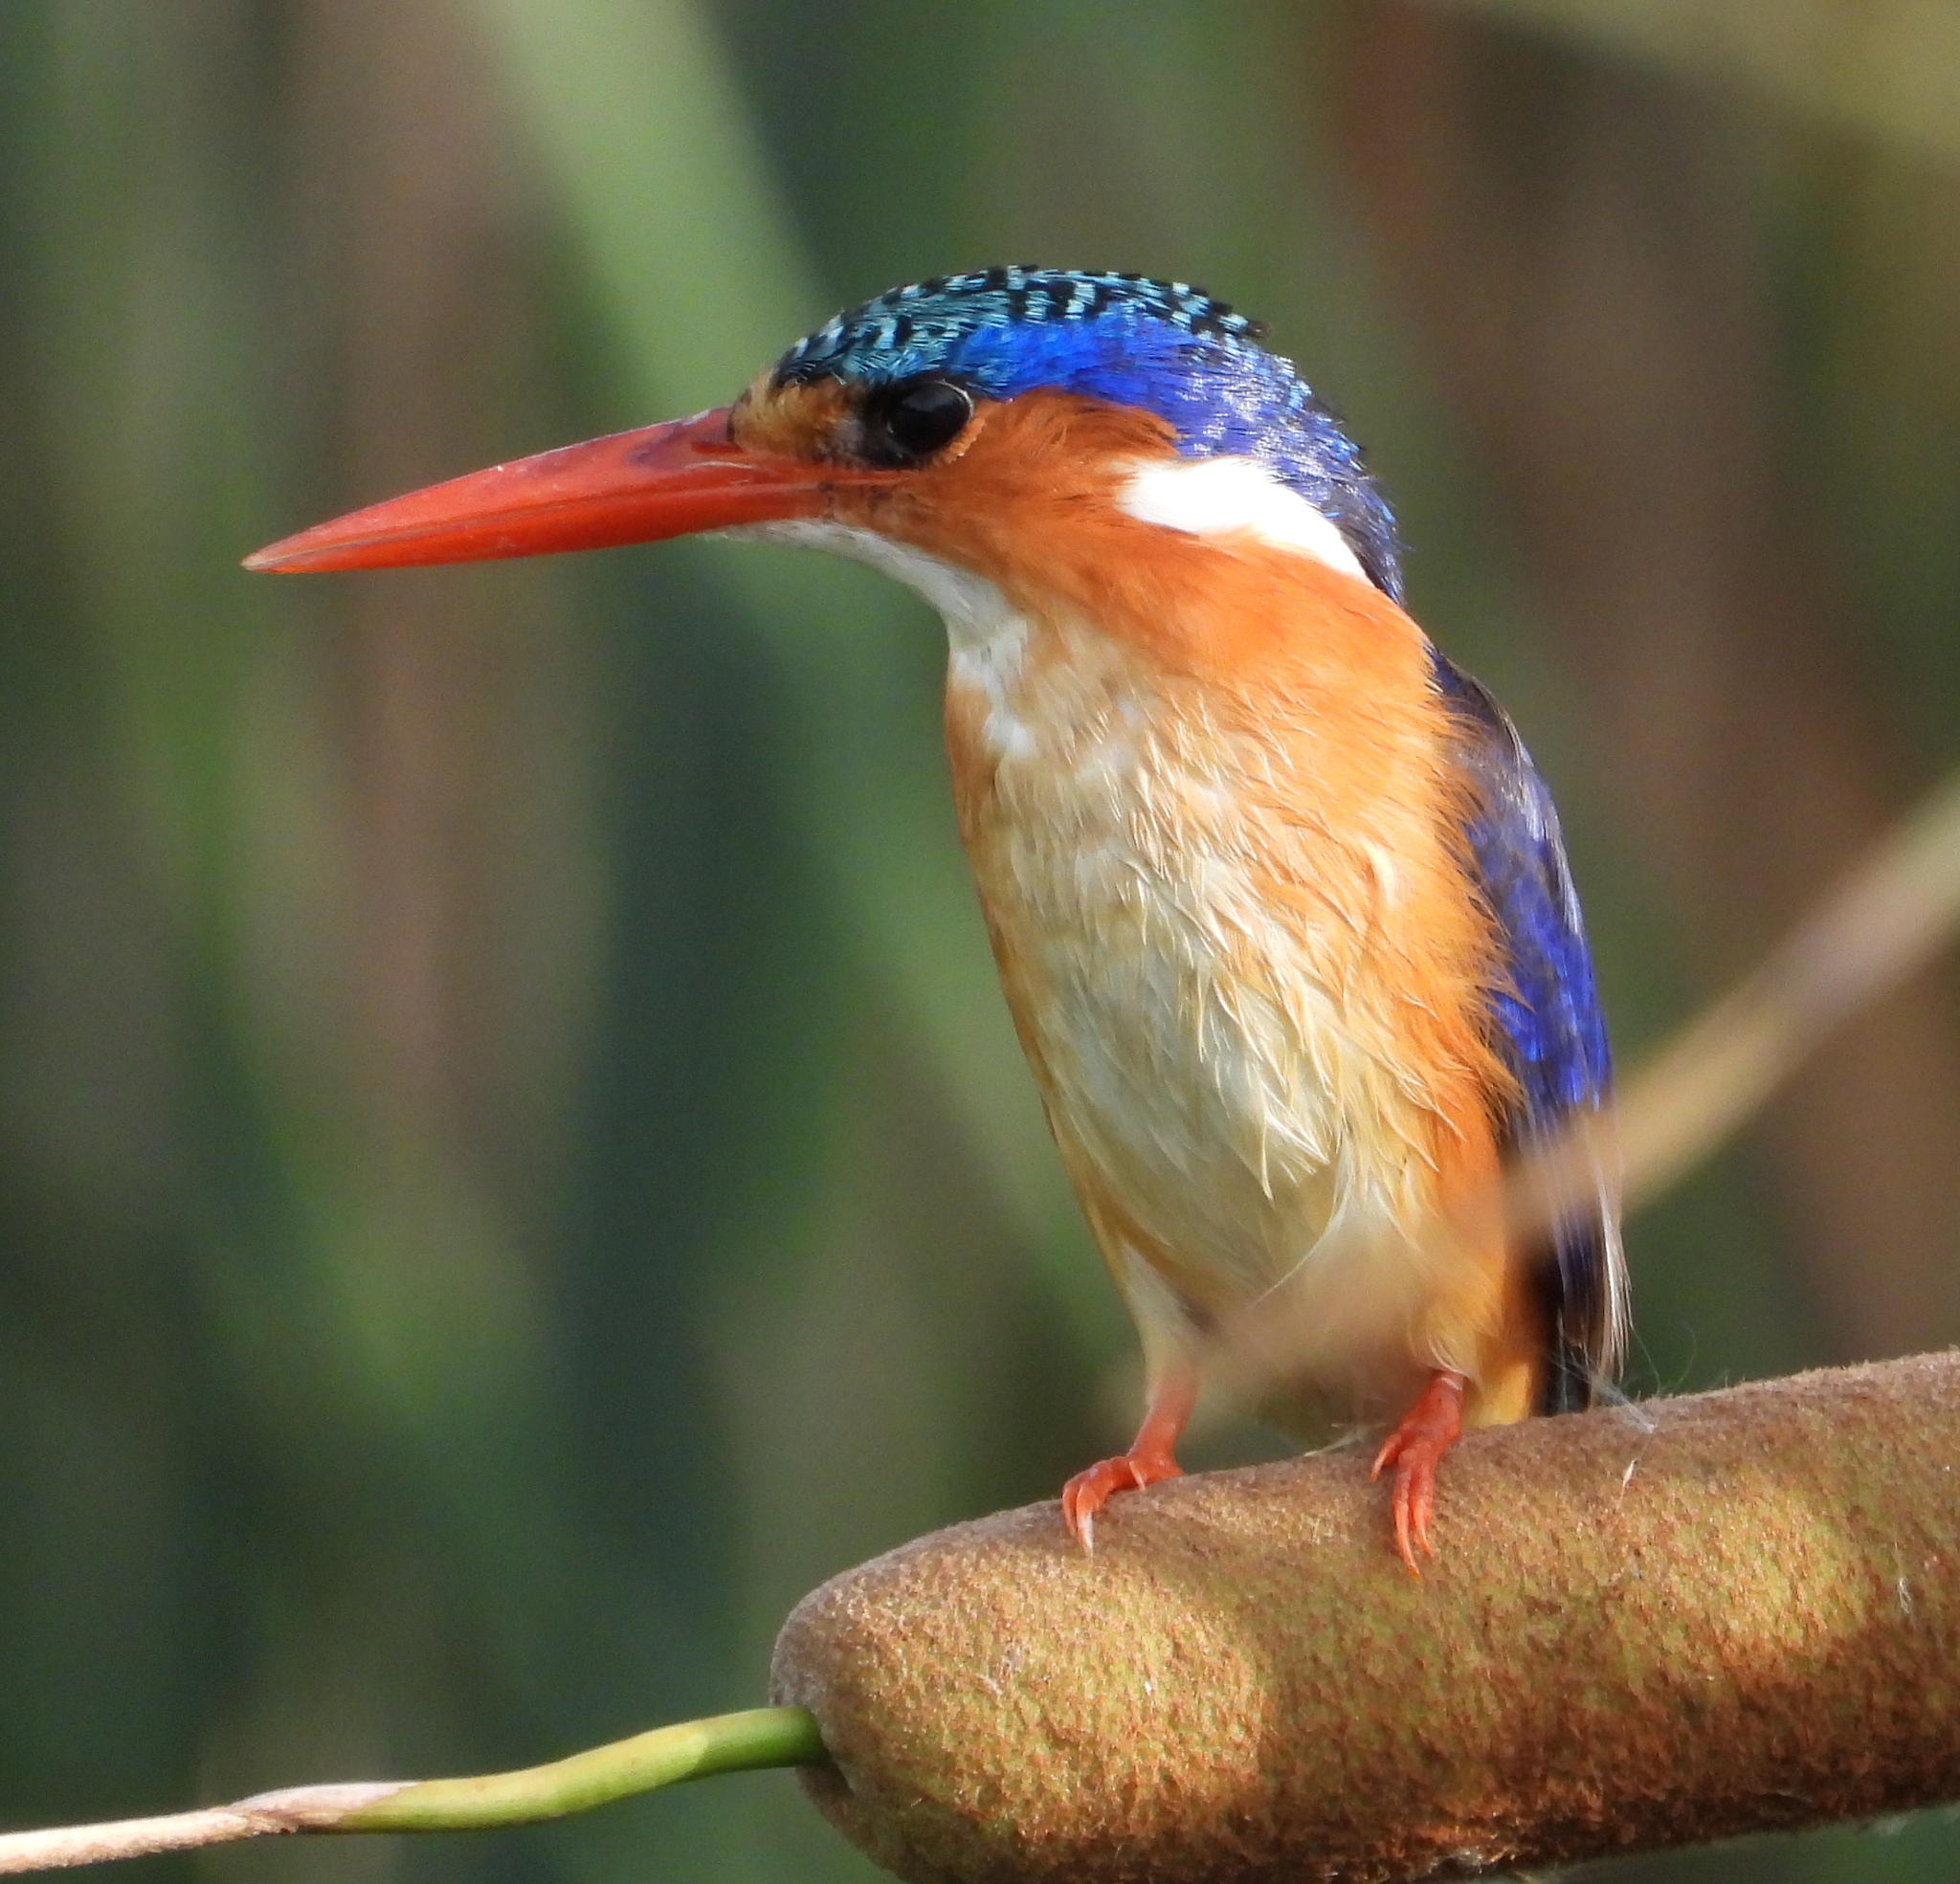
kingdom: Animalia
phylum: Chordata
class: Aves
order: Coraciiformes
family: Alcedinidae
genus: Corythornis
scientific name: Corythornis cristatus
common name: Malachite kingfisher
